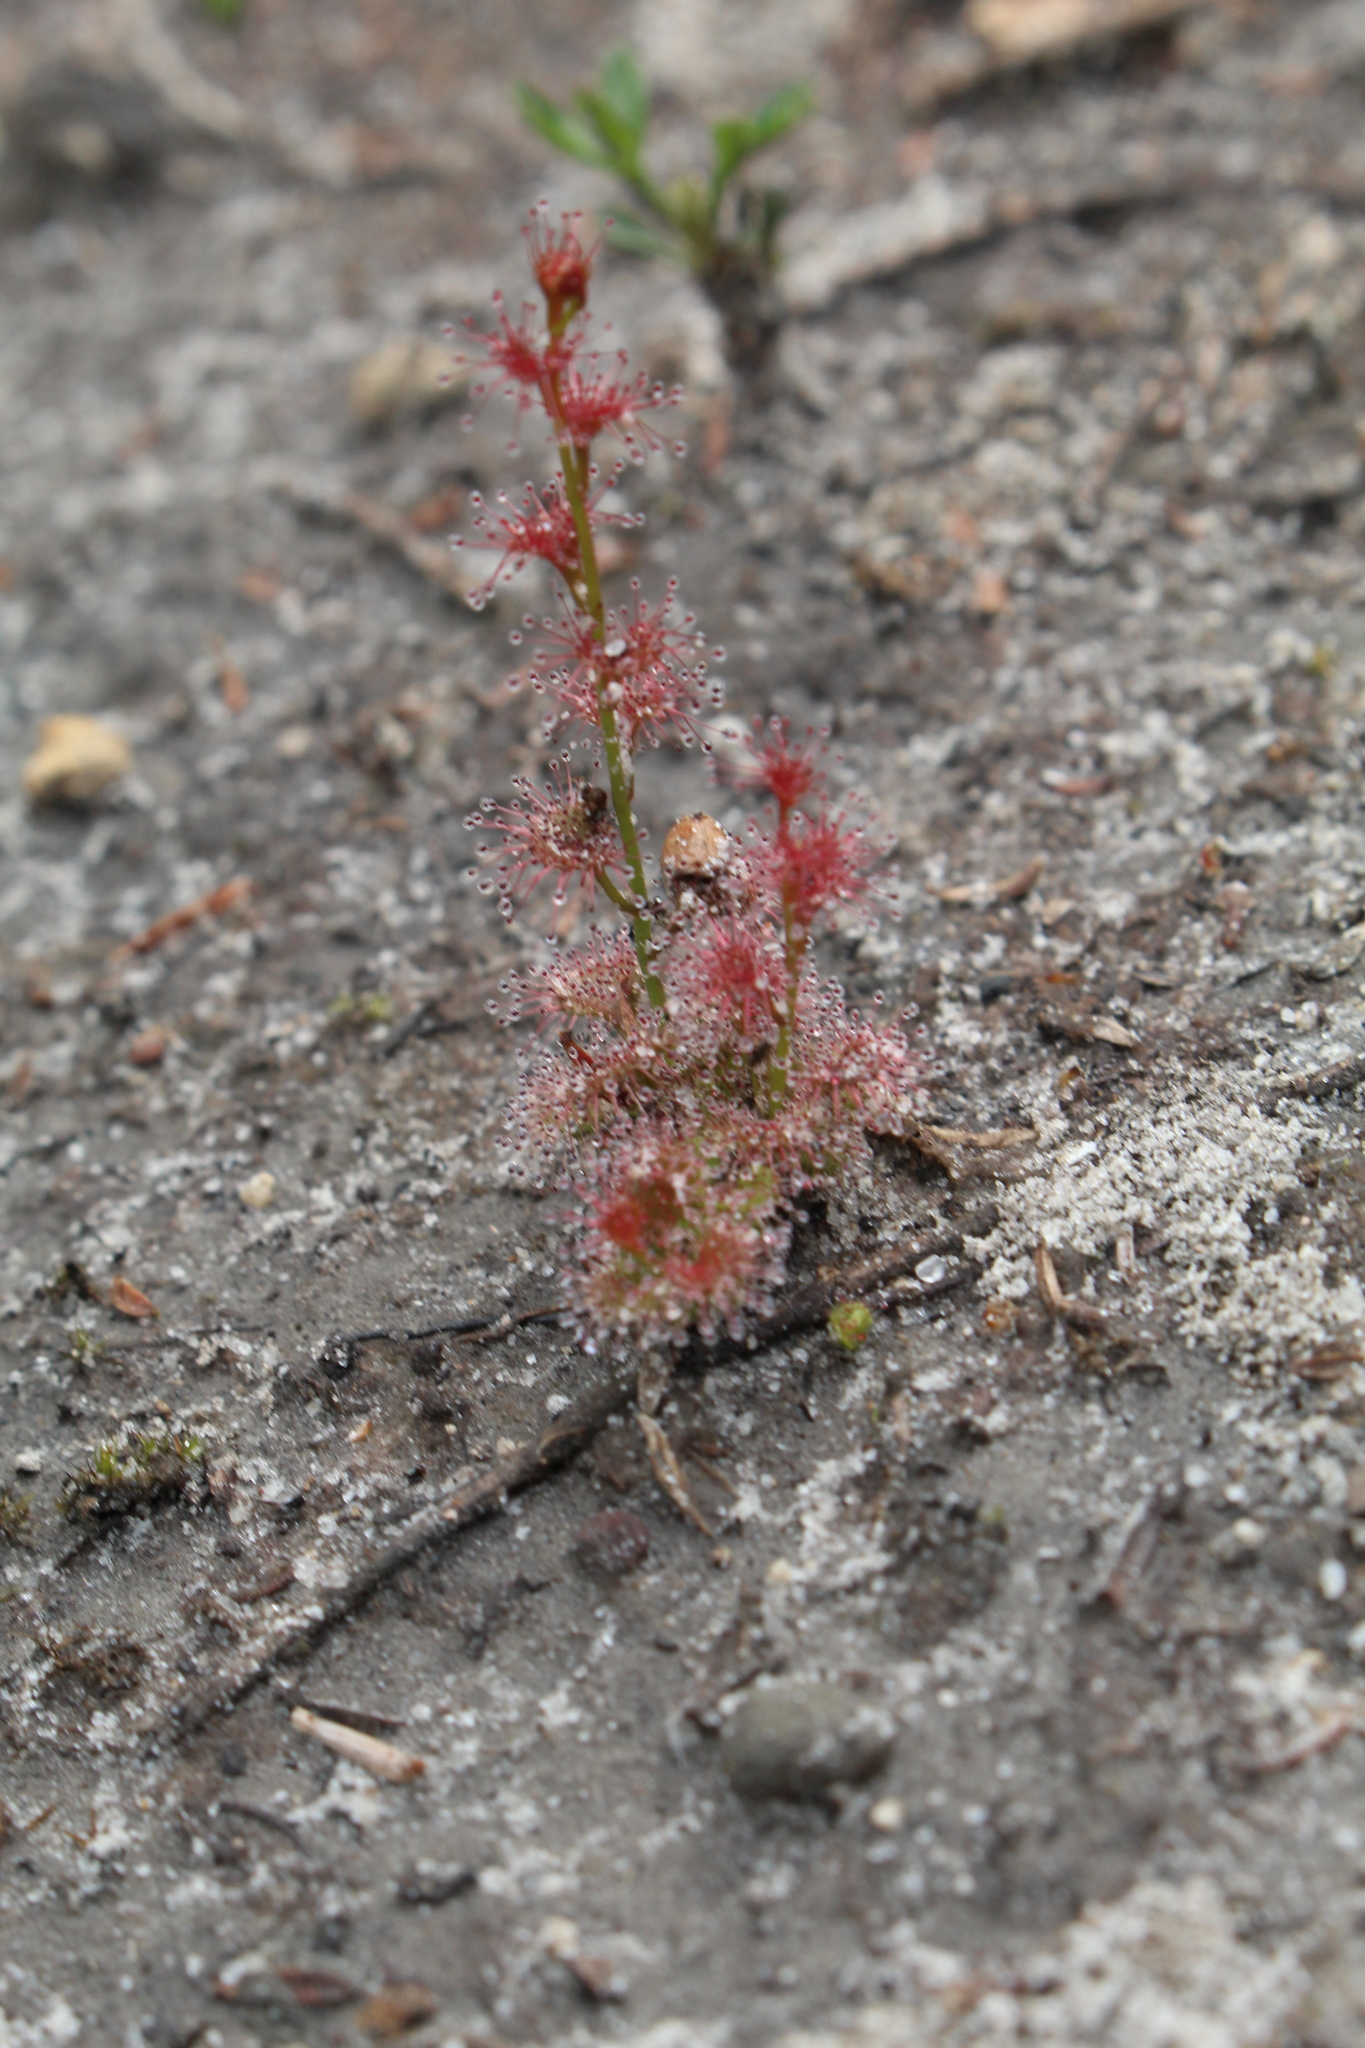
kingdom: Plantae
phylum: Tracheophyta
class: Magnoliopsida
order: Caryophyllales
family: Droseraceae
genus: Drosera
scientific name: Drosera platypoda
